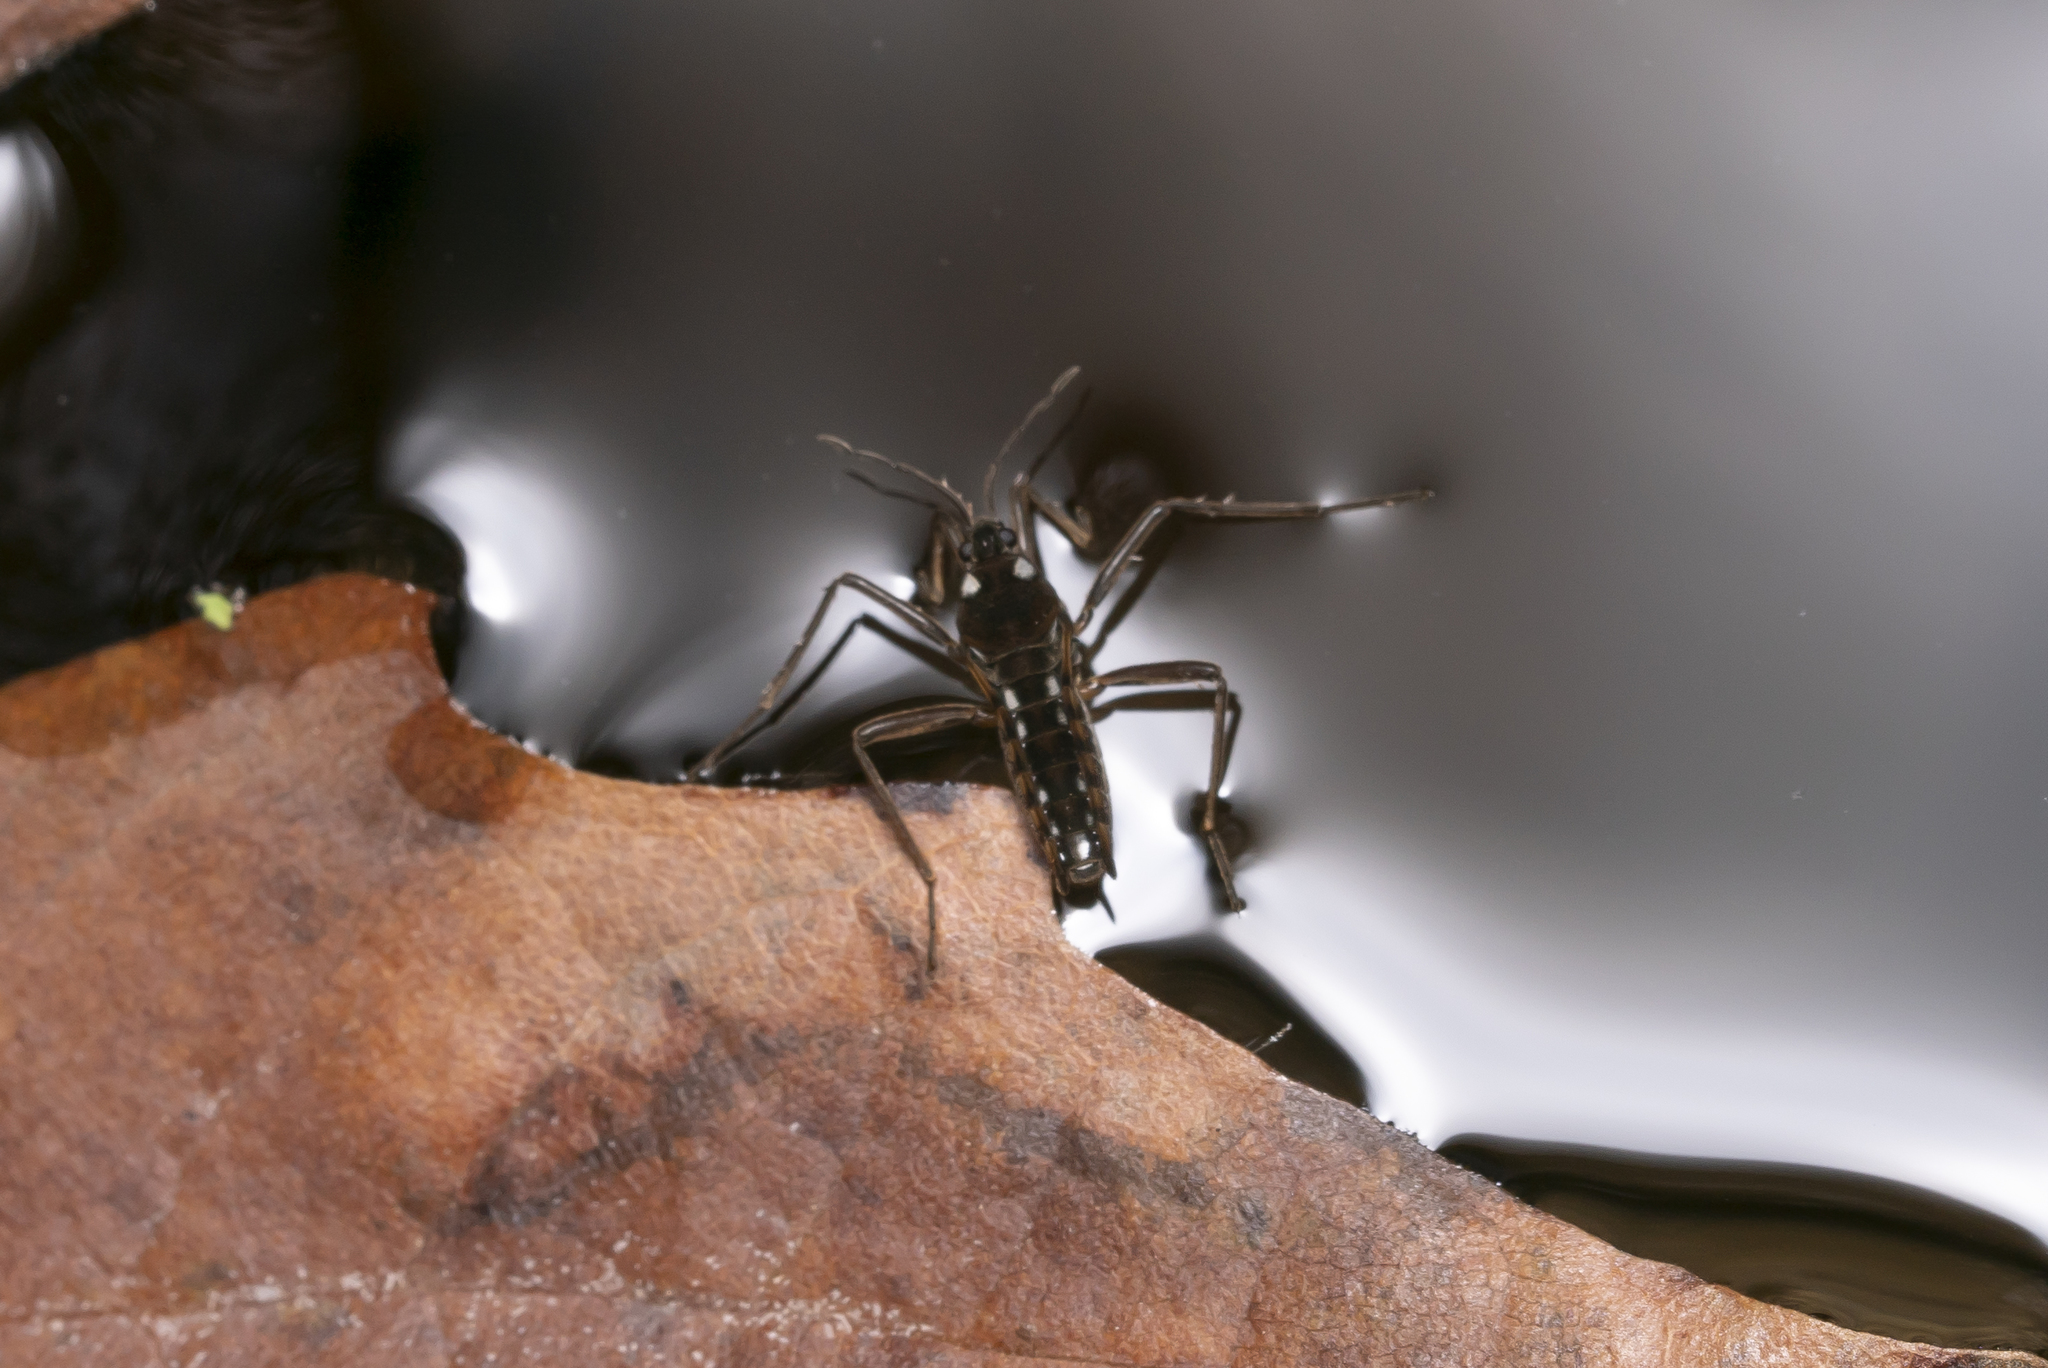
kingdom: Animalia
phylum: Arthropoda
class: Insecta
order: Hemiptera
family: Veliidae
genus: Velia
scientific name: Velia mariae
